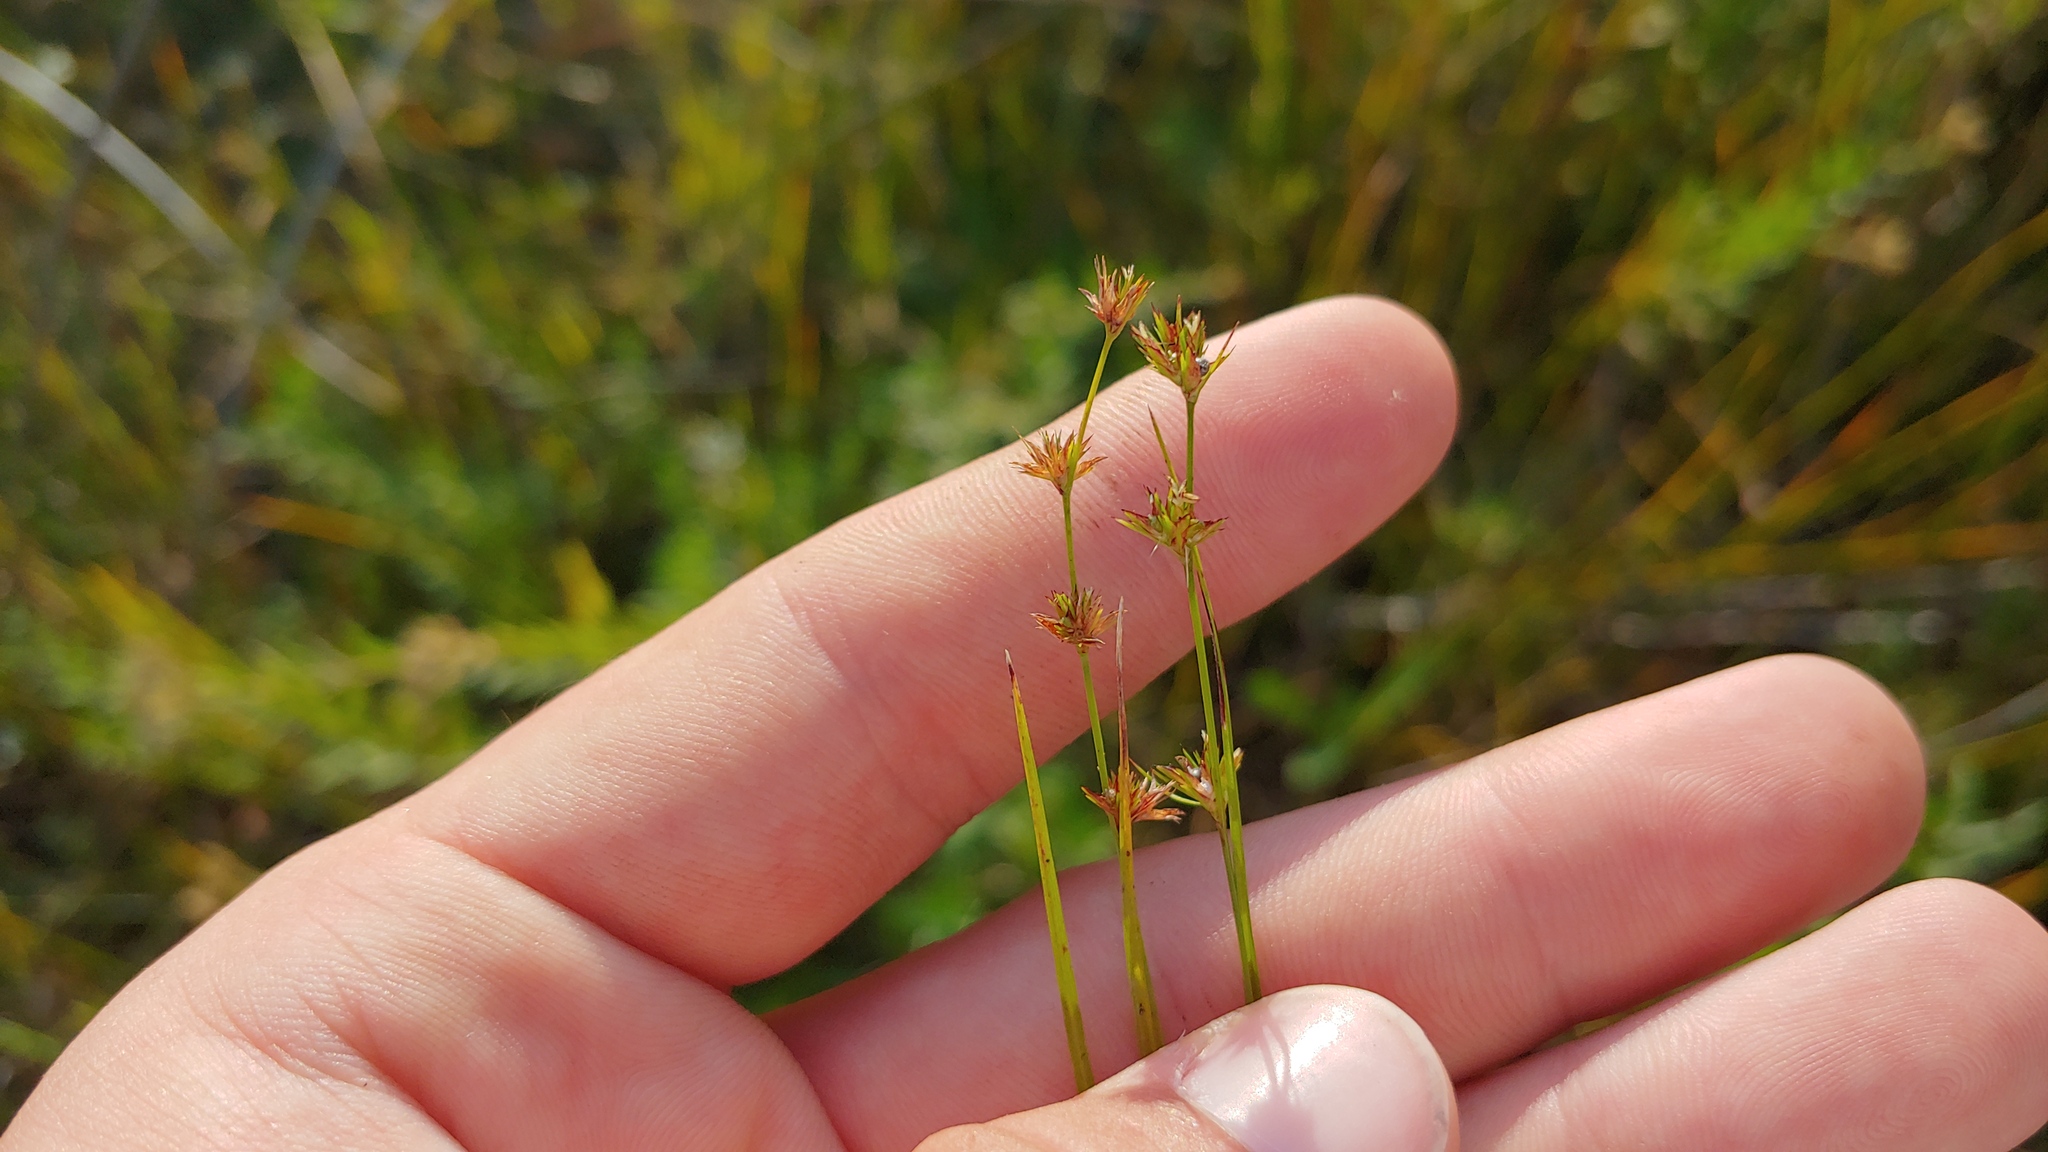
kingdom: Plantae
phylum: Tracheophyta
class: Liliopsida
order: Poales
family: Cyperaceae
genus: Scleria
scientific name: Scleria verticillata
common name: Low nutrush
